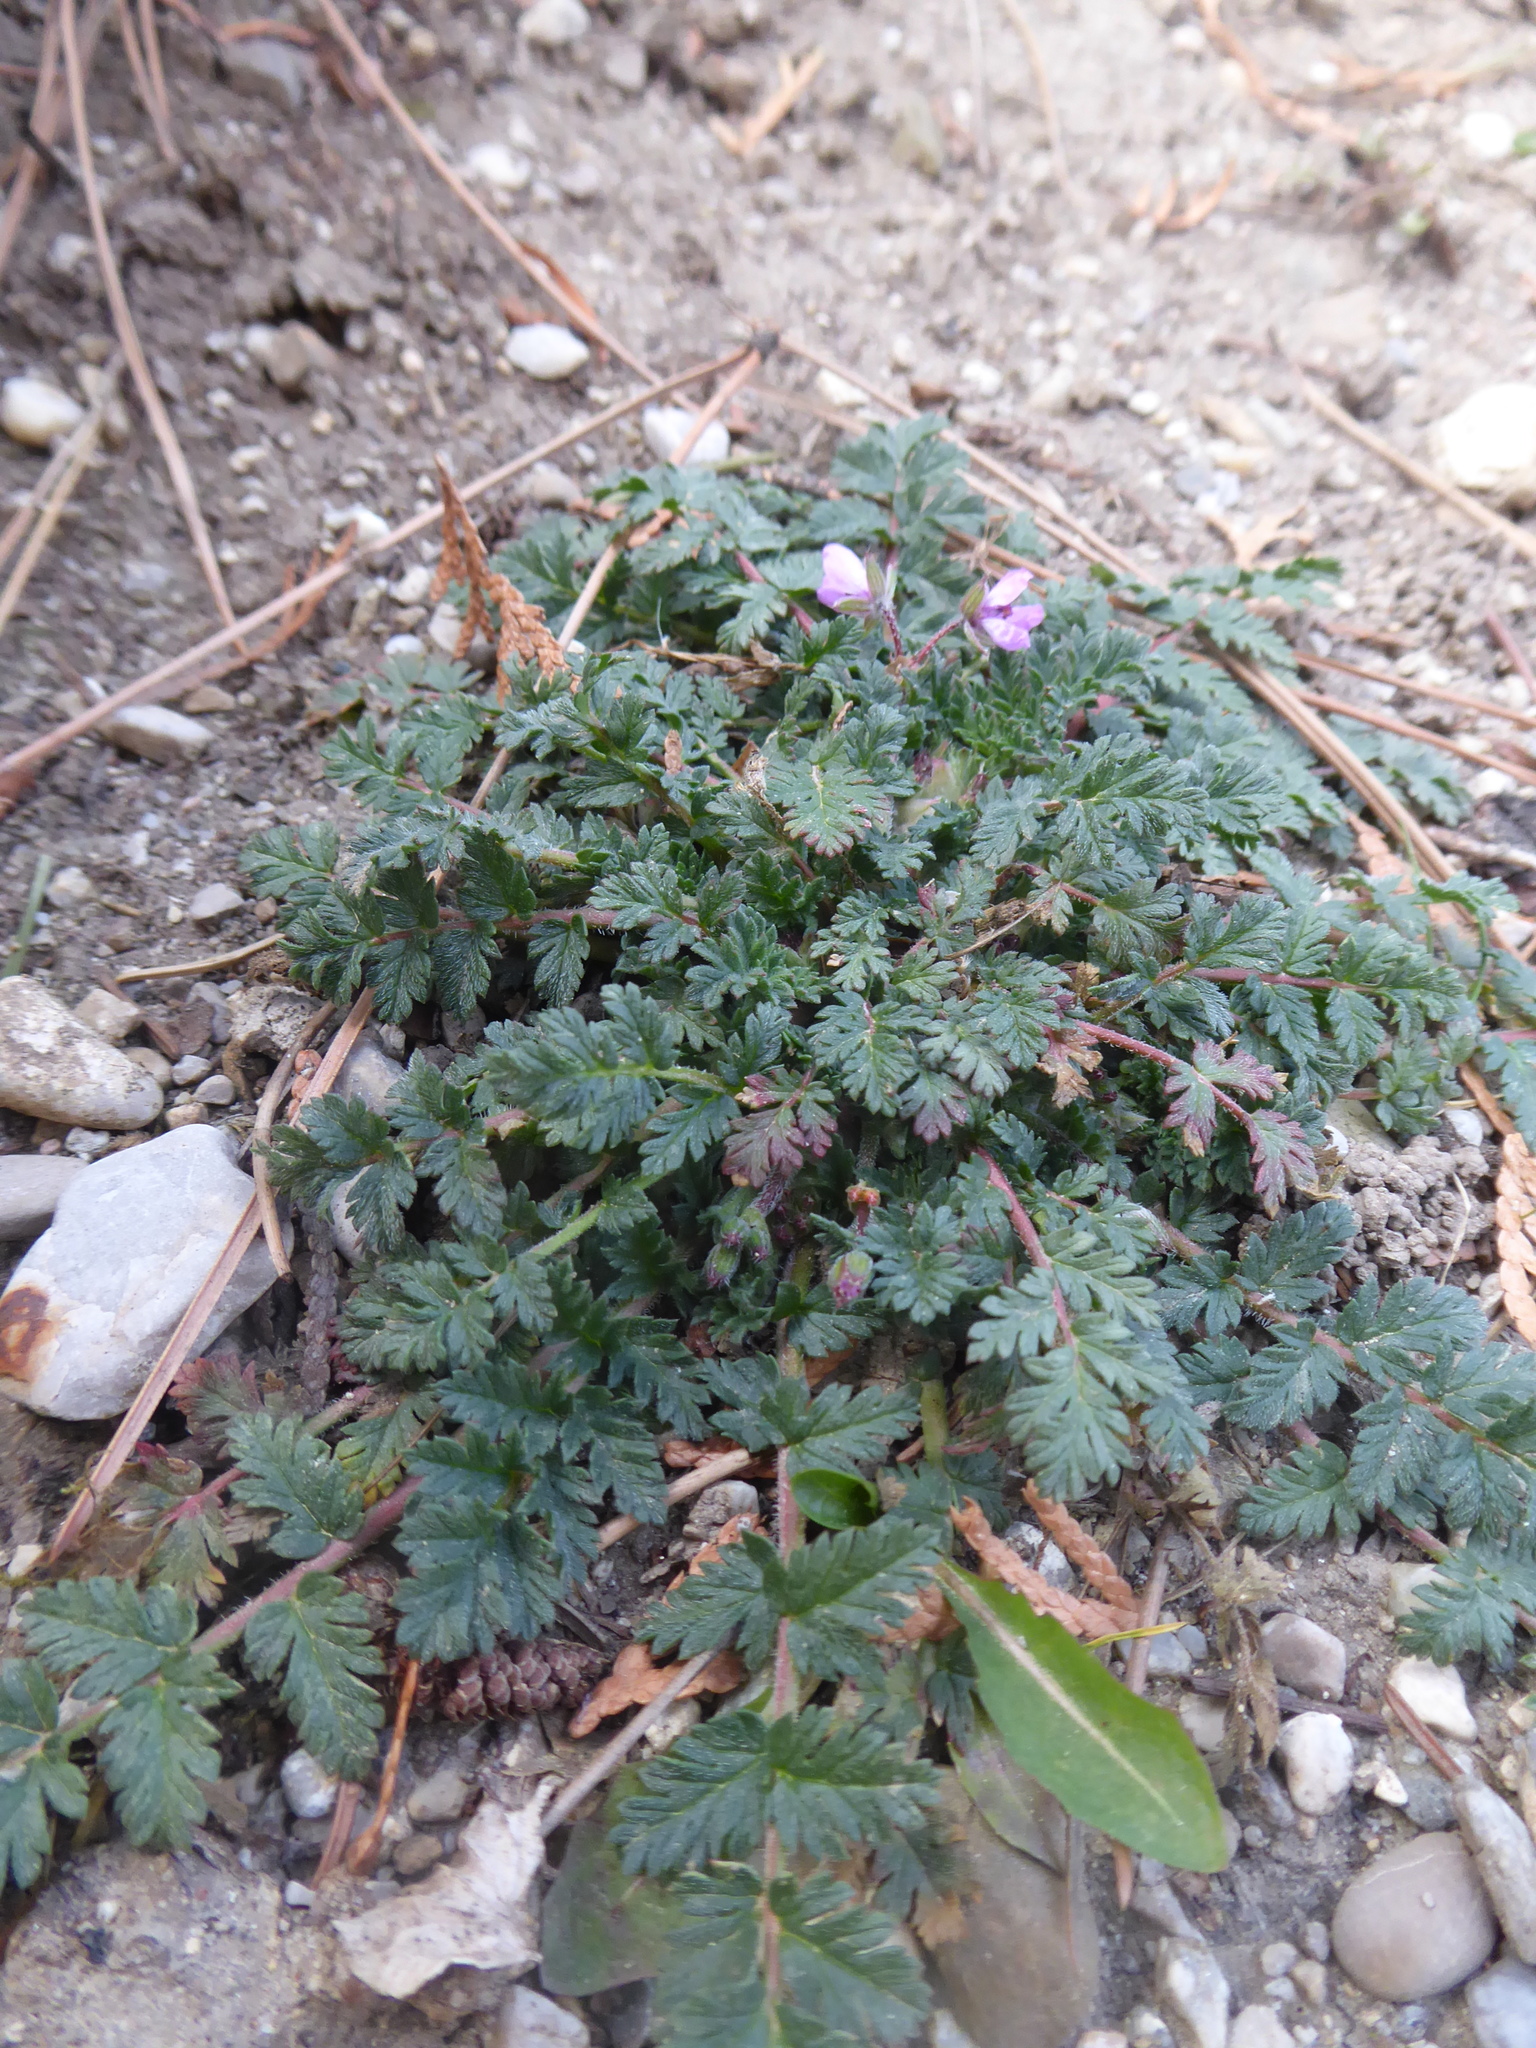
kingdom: Plantae
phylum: Tracheophyta
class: Magnoliopsida
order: Geraniales
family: Geraniaceae
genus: Erodium
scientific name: Erodium cicutarium
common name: Common stork's-bill
